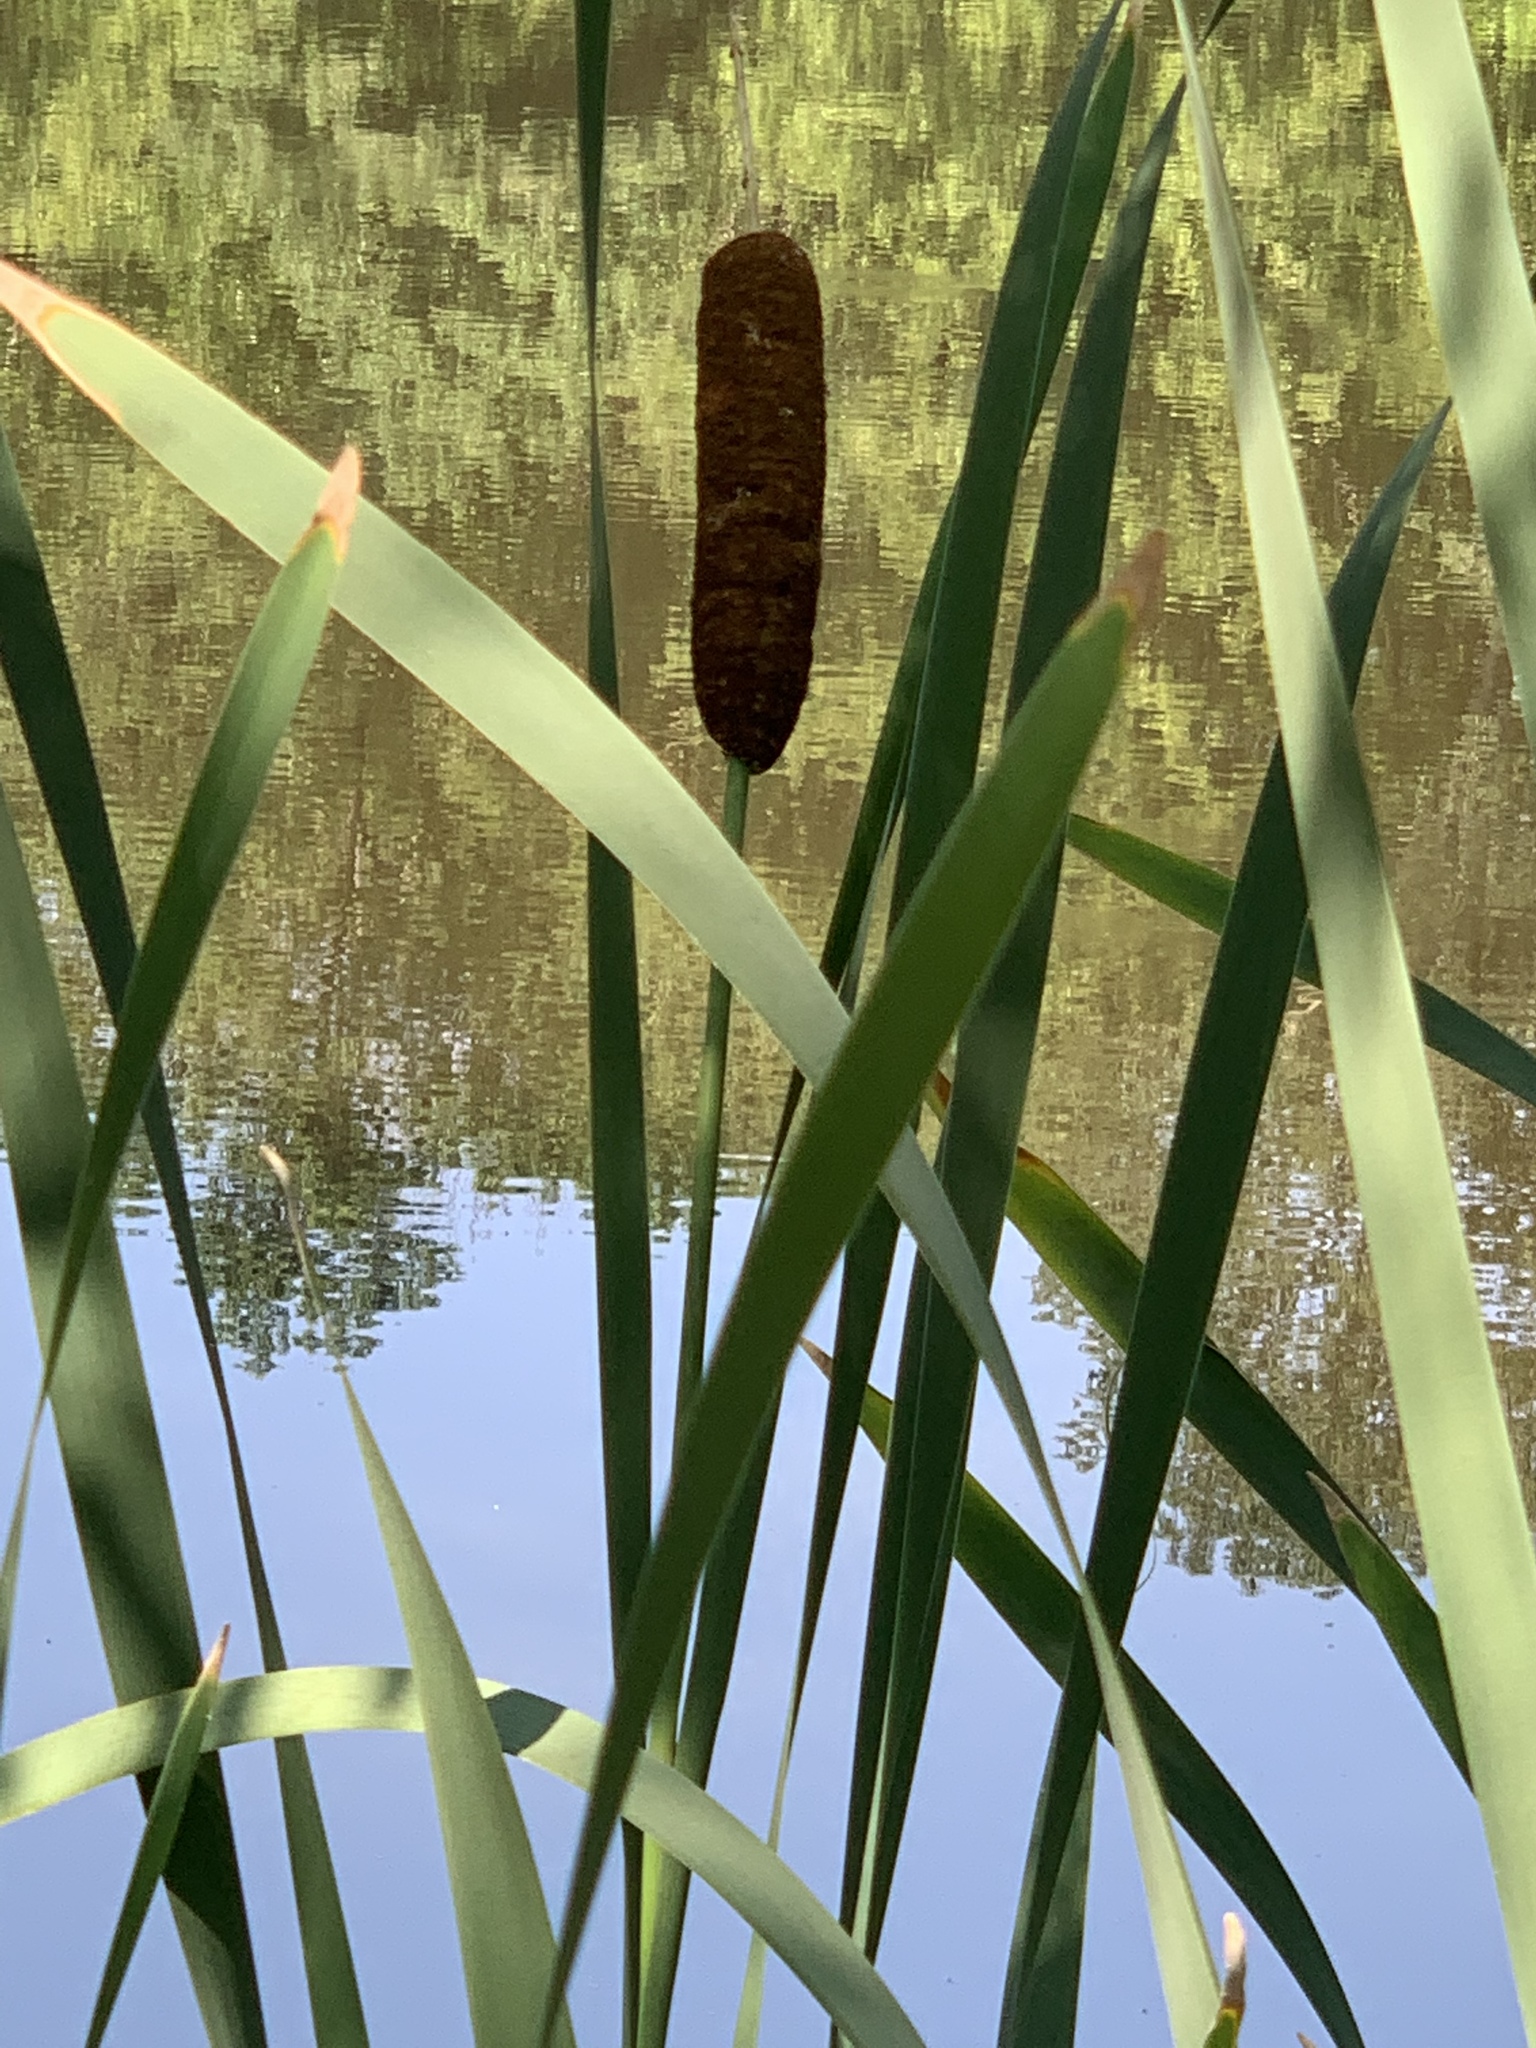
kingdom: Plantae
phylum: Tracheophyta
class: Liliopsida
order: Poales
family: Typhaceae
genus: Typha
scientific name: Typha latifolia
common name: Broadleaf cattail
